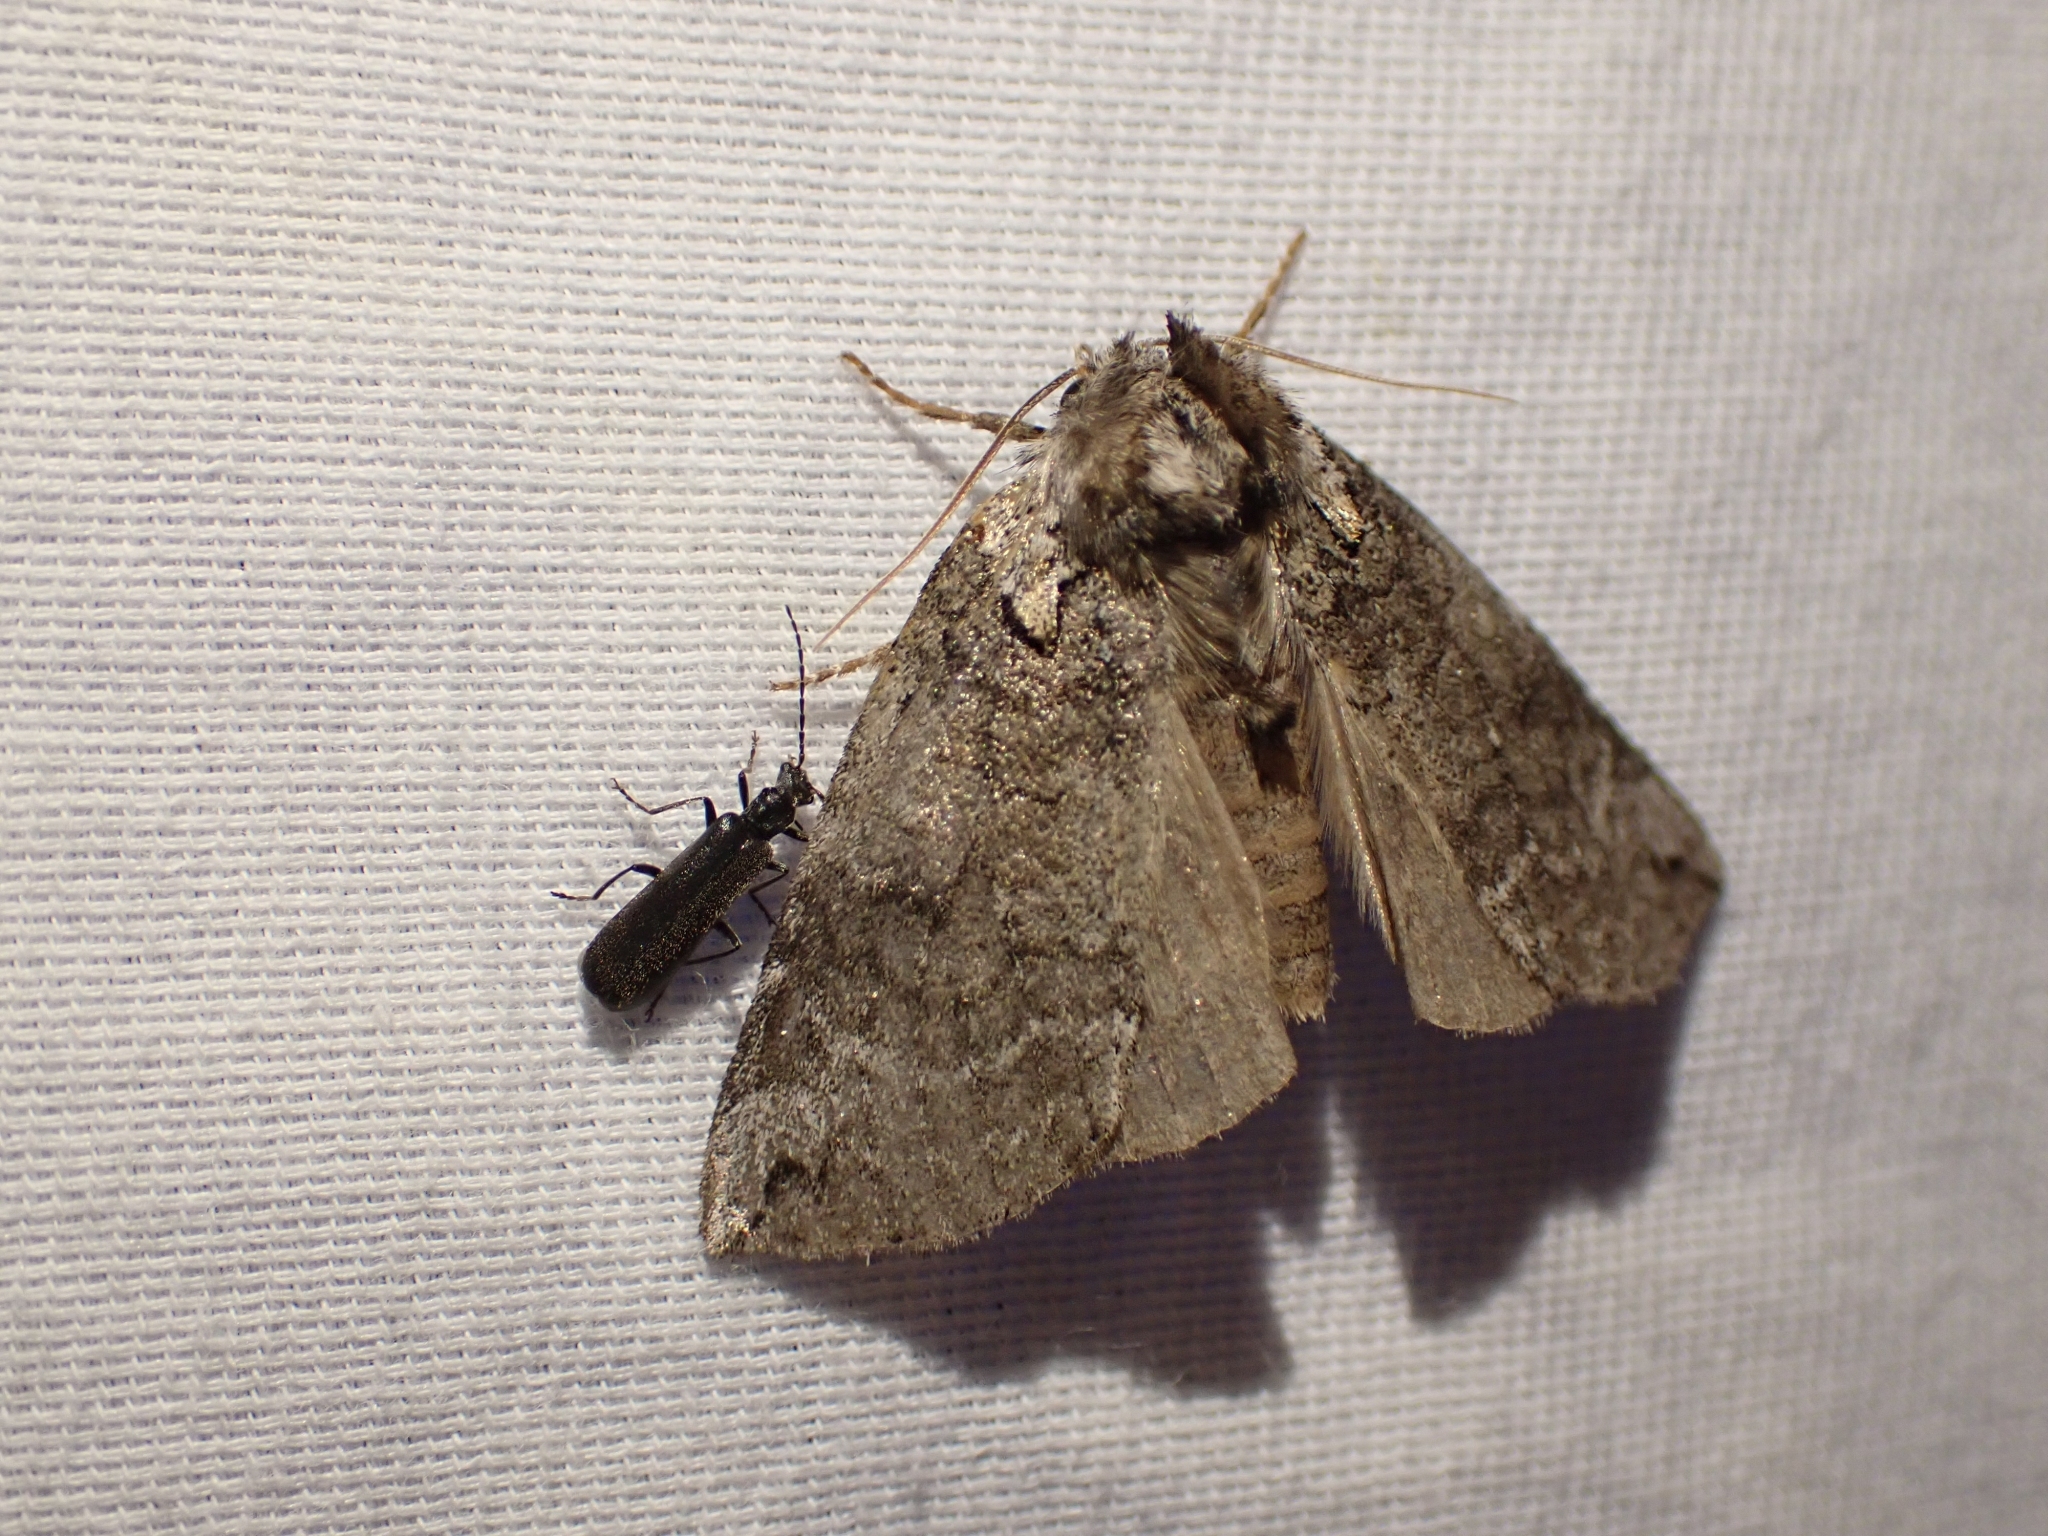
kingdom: Animalia
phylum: Arthropoda
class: Insecta
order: Lepidoptera
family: Drepanidae
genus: Euthyatira
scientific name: Euthyatira semicircularis
